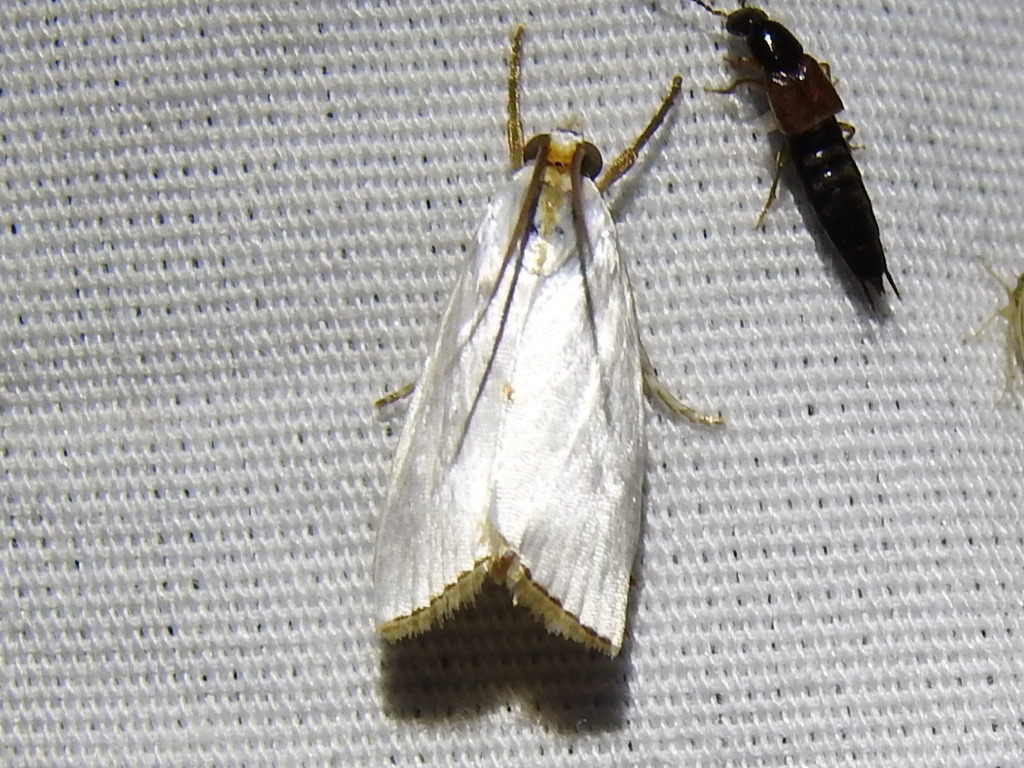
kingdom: Animalia
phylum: Arthropoda
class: Insecta
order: Lepidoptera
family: Crambidae
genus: Argyria
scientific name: Argyria nivalis
